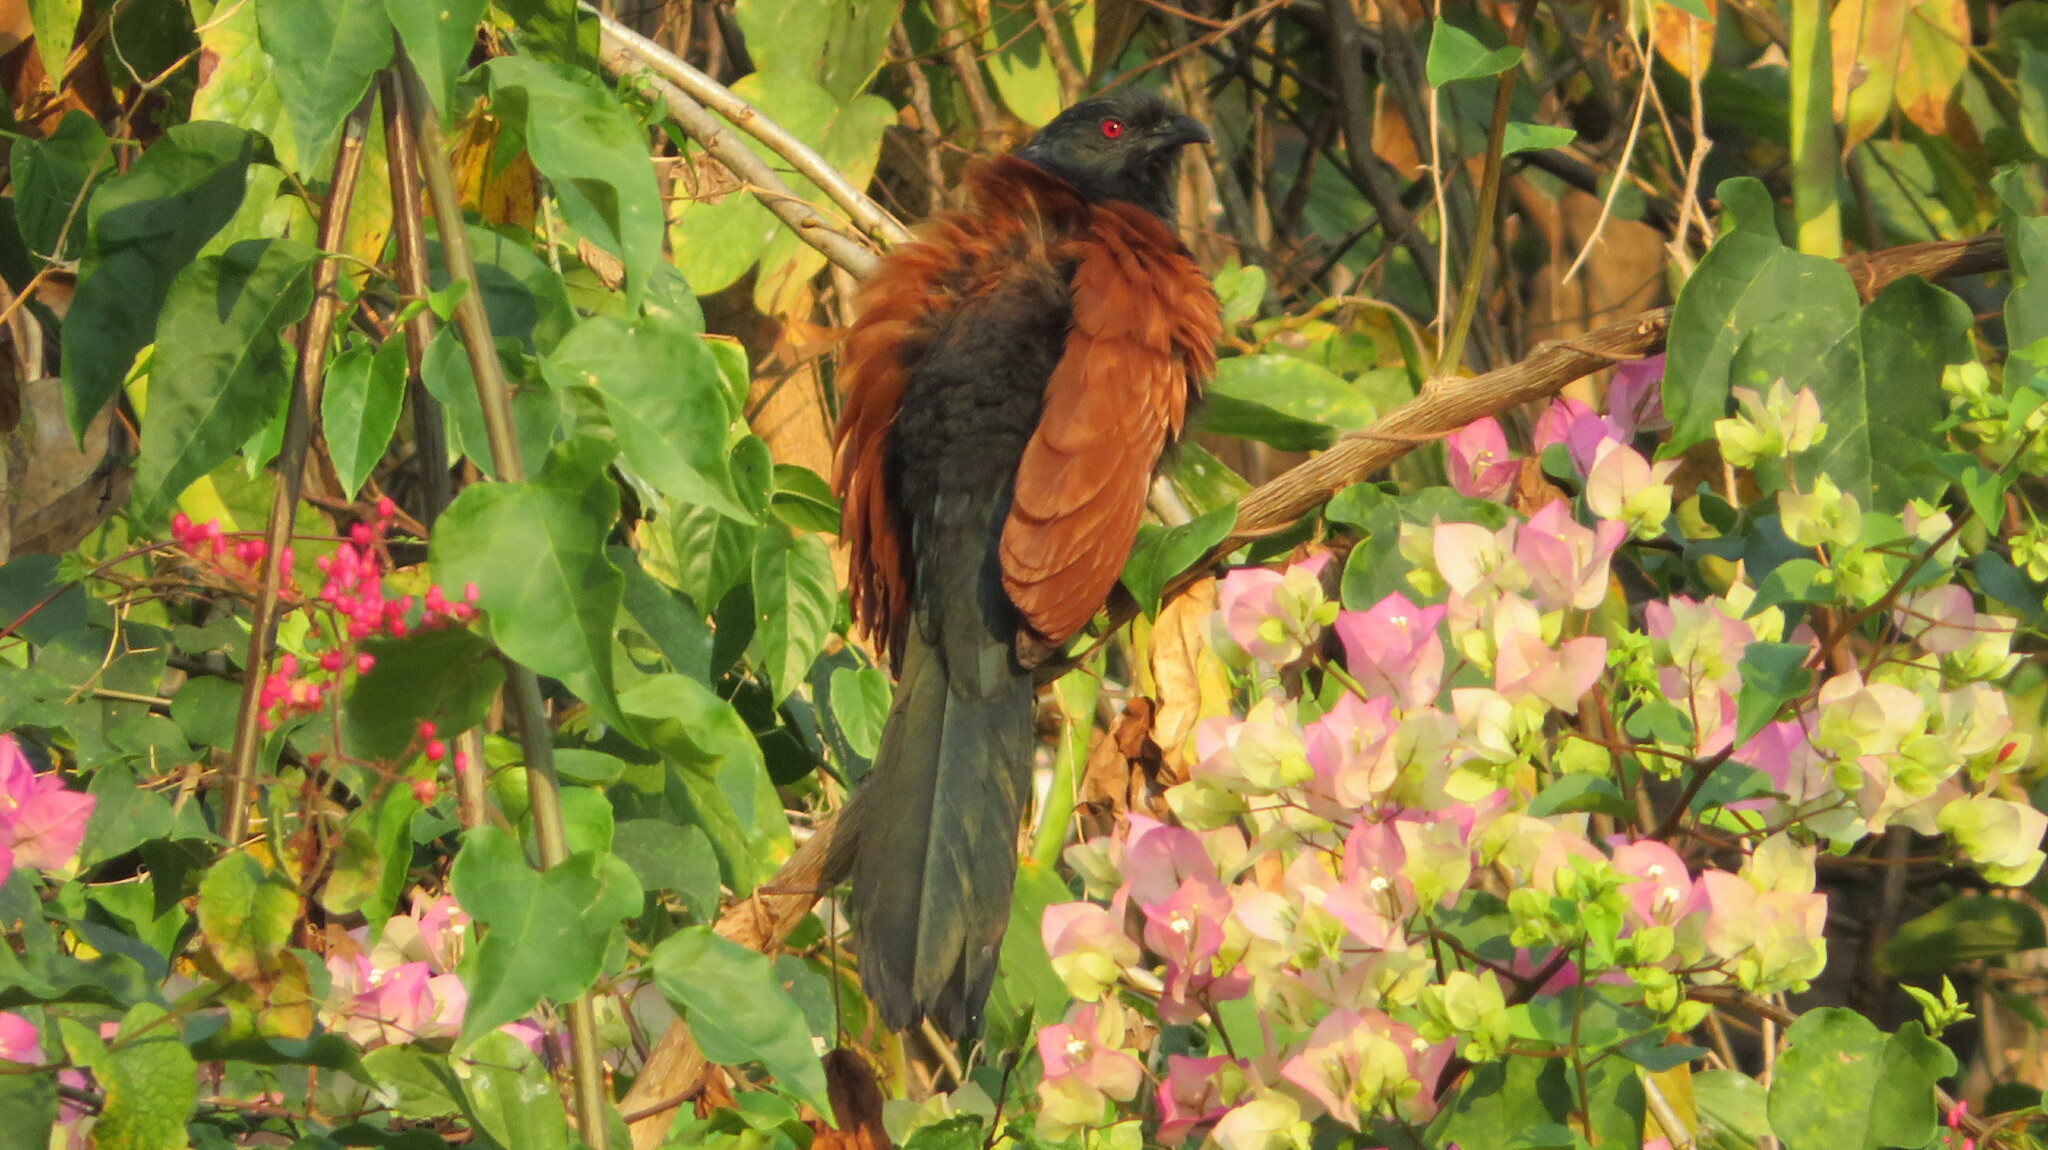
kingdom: Animalia
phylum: Chordata
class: Aves
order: Cuculiformes
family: Cuculidae
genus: Centropus
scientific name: Centropus sinensis
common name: Greater coucal
